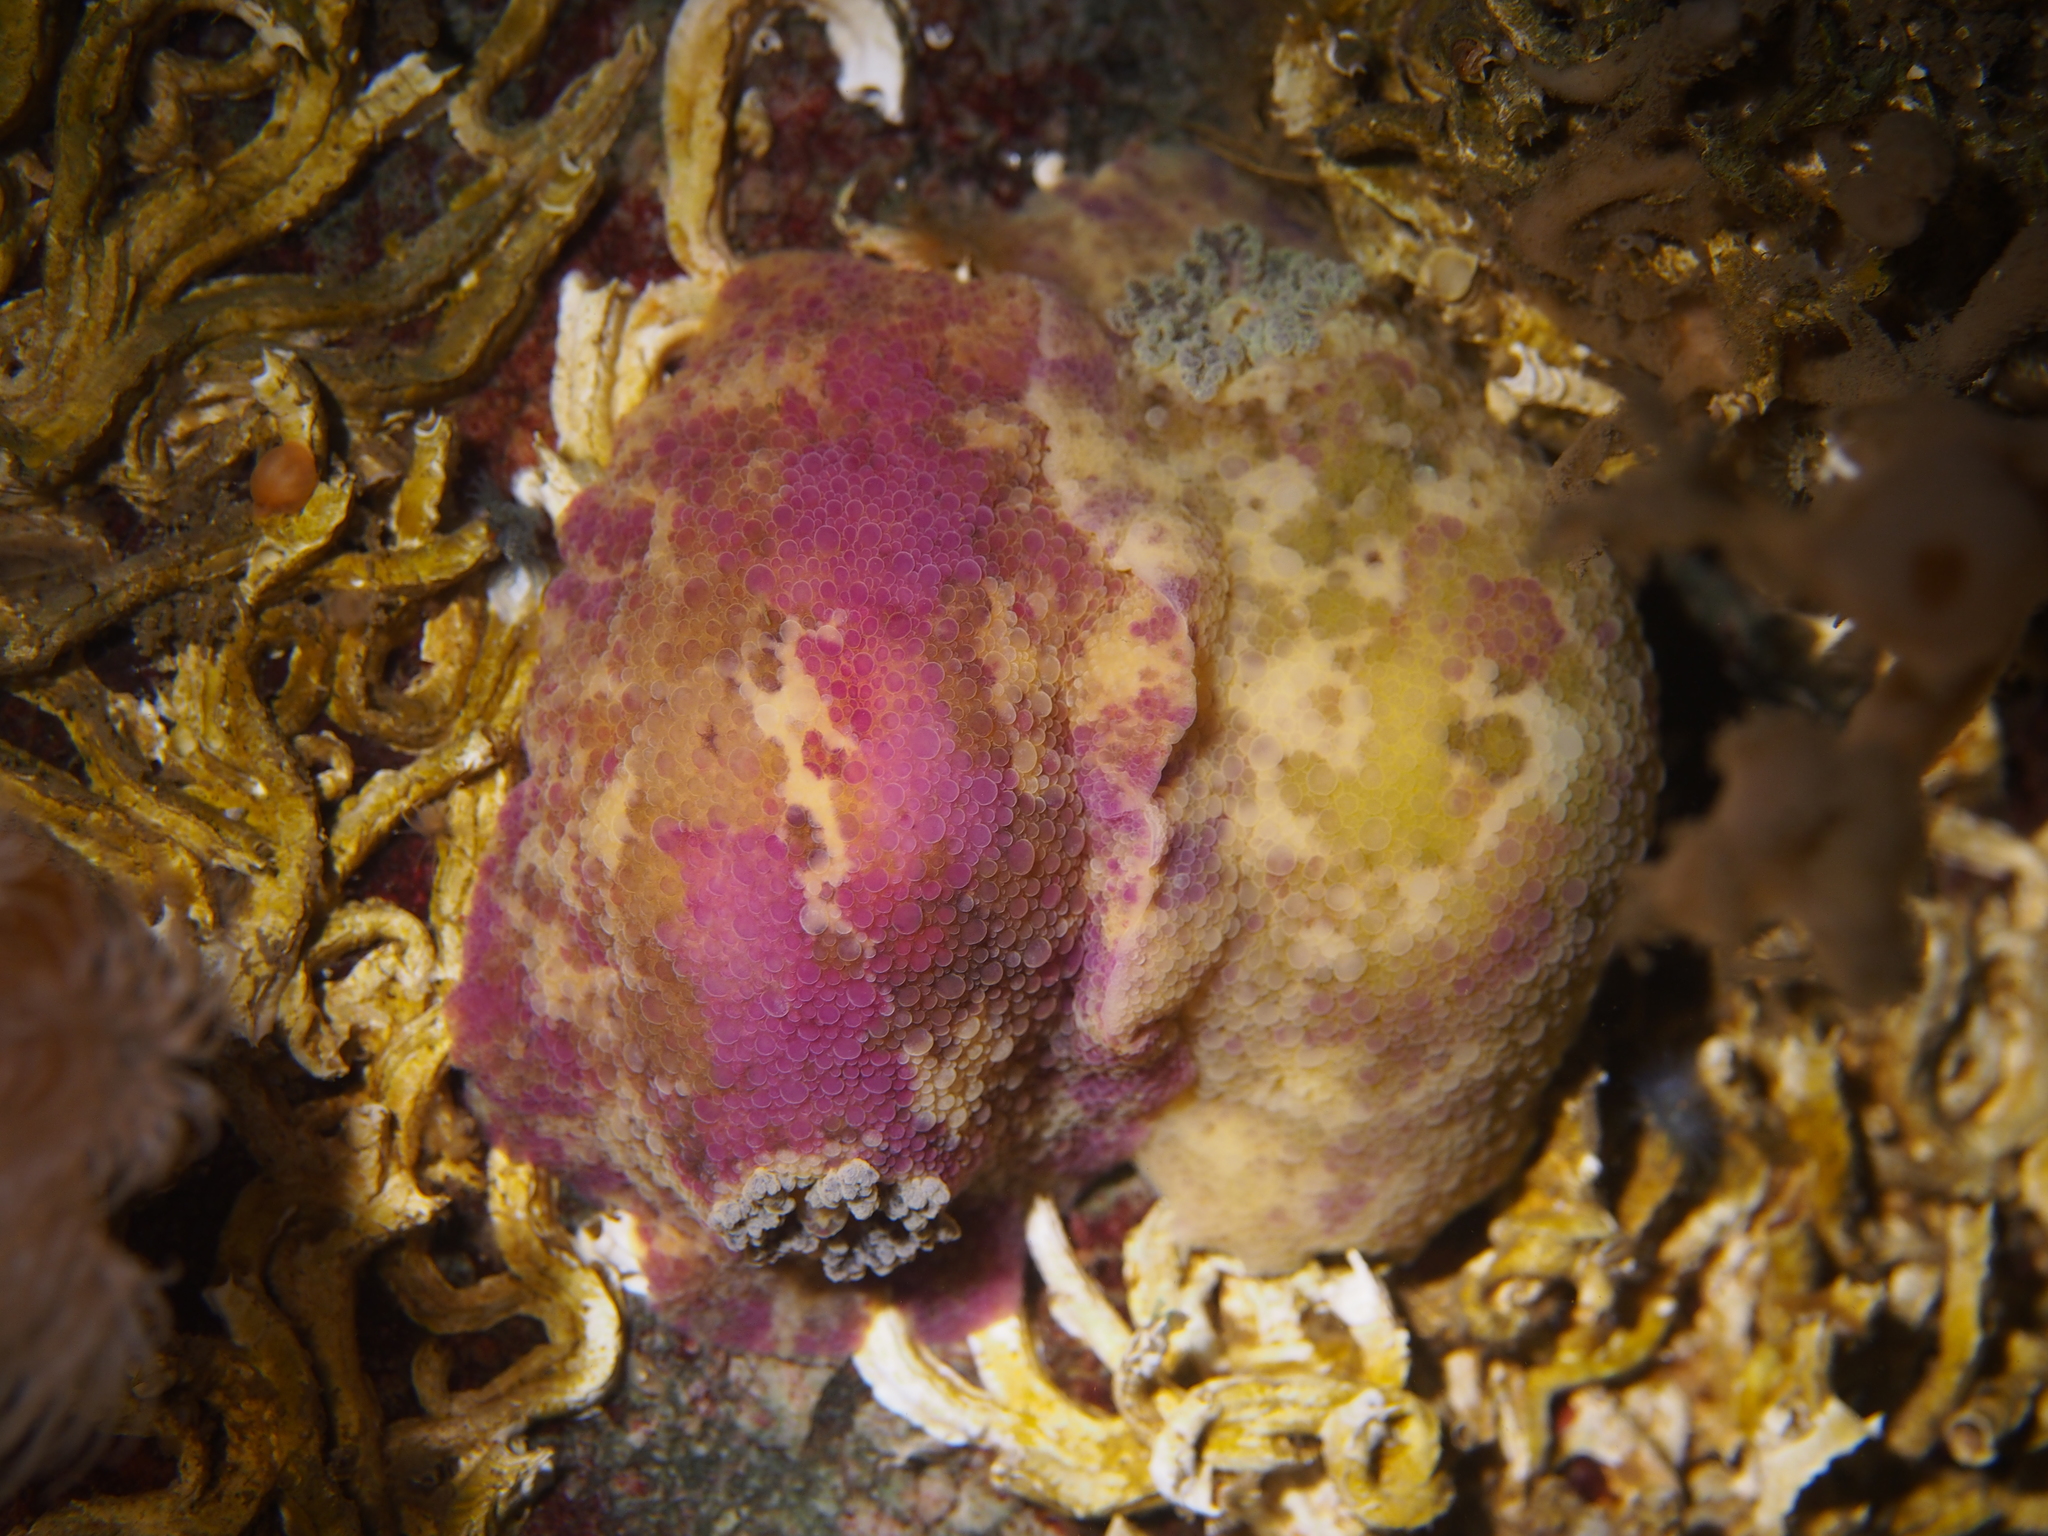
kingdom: Animalia
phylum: Mollusca
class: Gastropoda
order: Nudibranchia
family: Dorididae
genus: Doris
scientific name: Doris pseudoargus
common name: Sea lemon
